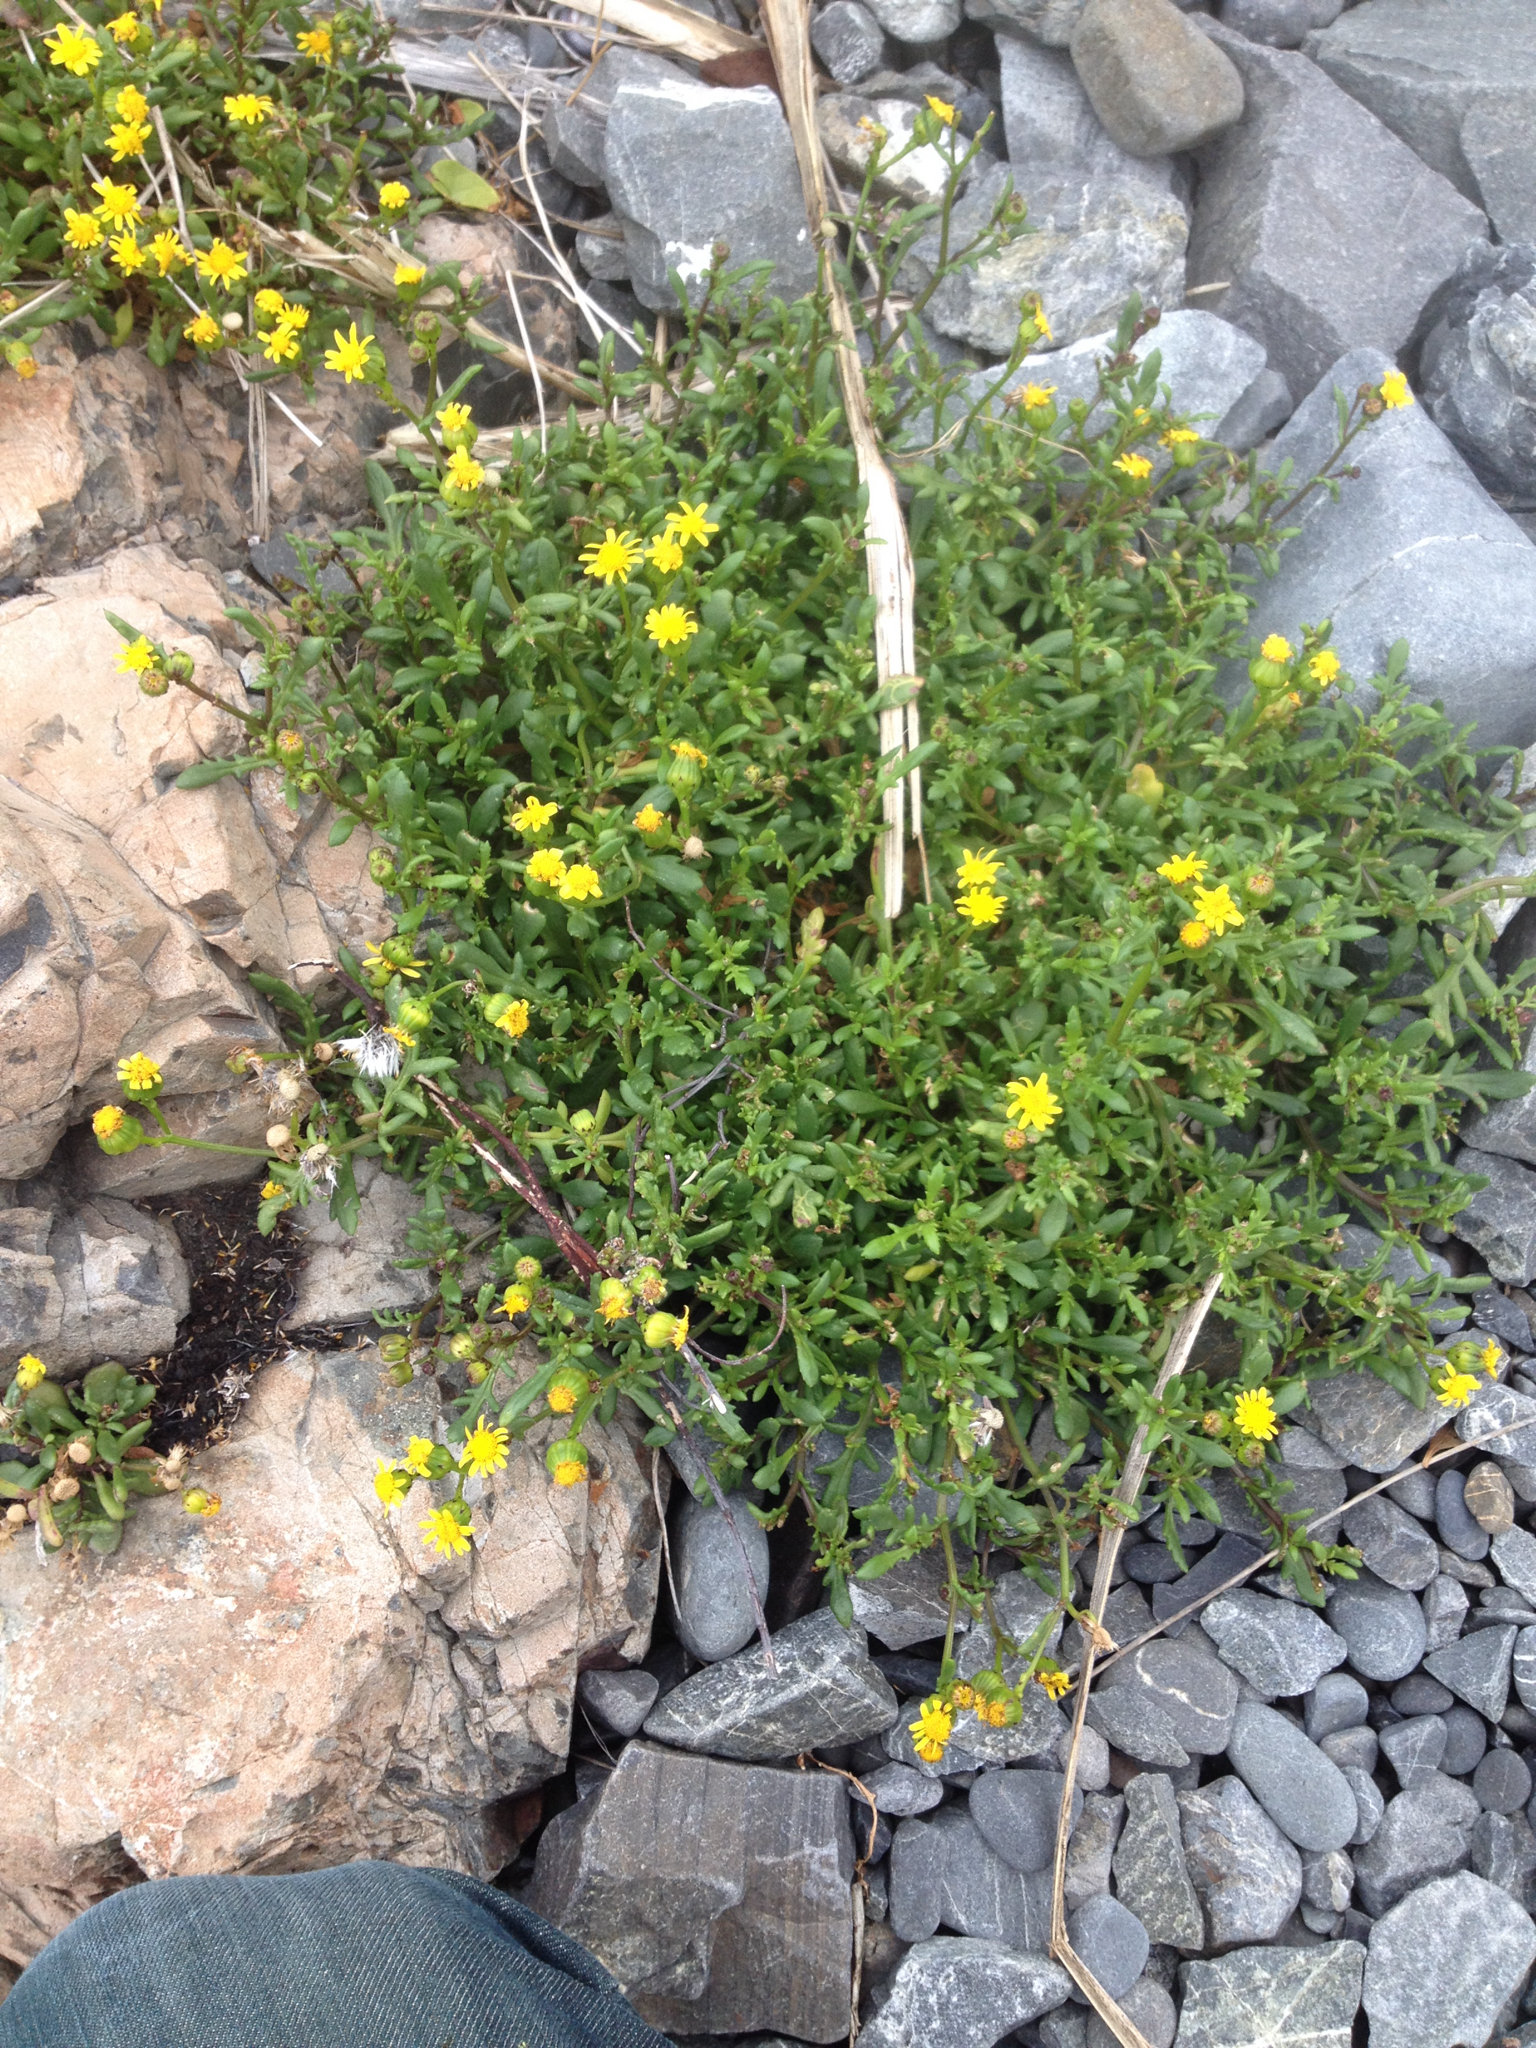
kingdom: Plantae
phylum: Tracheophyta
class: Magnoliopsida
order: Asterales
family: Asteraceae
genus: Senecio
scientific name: Senecio lautus
